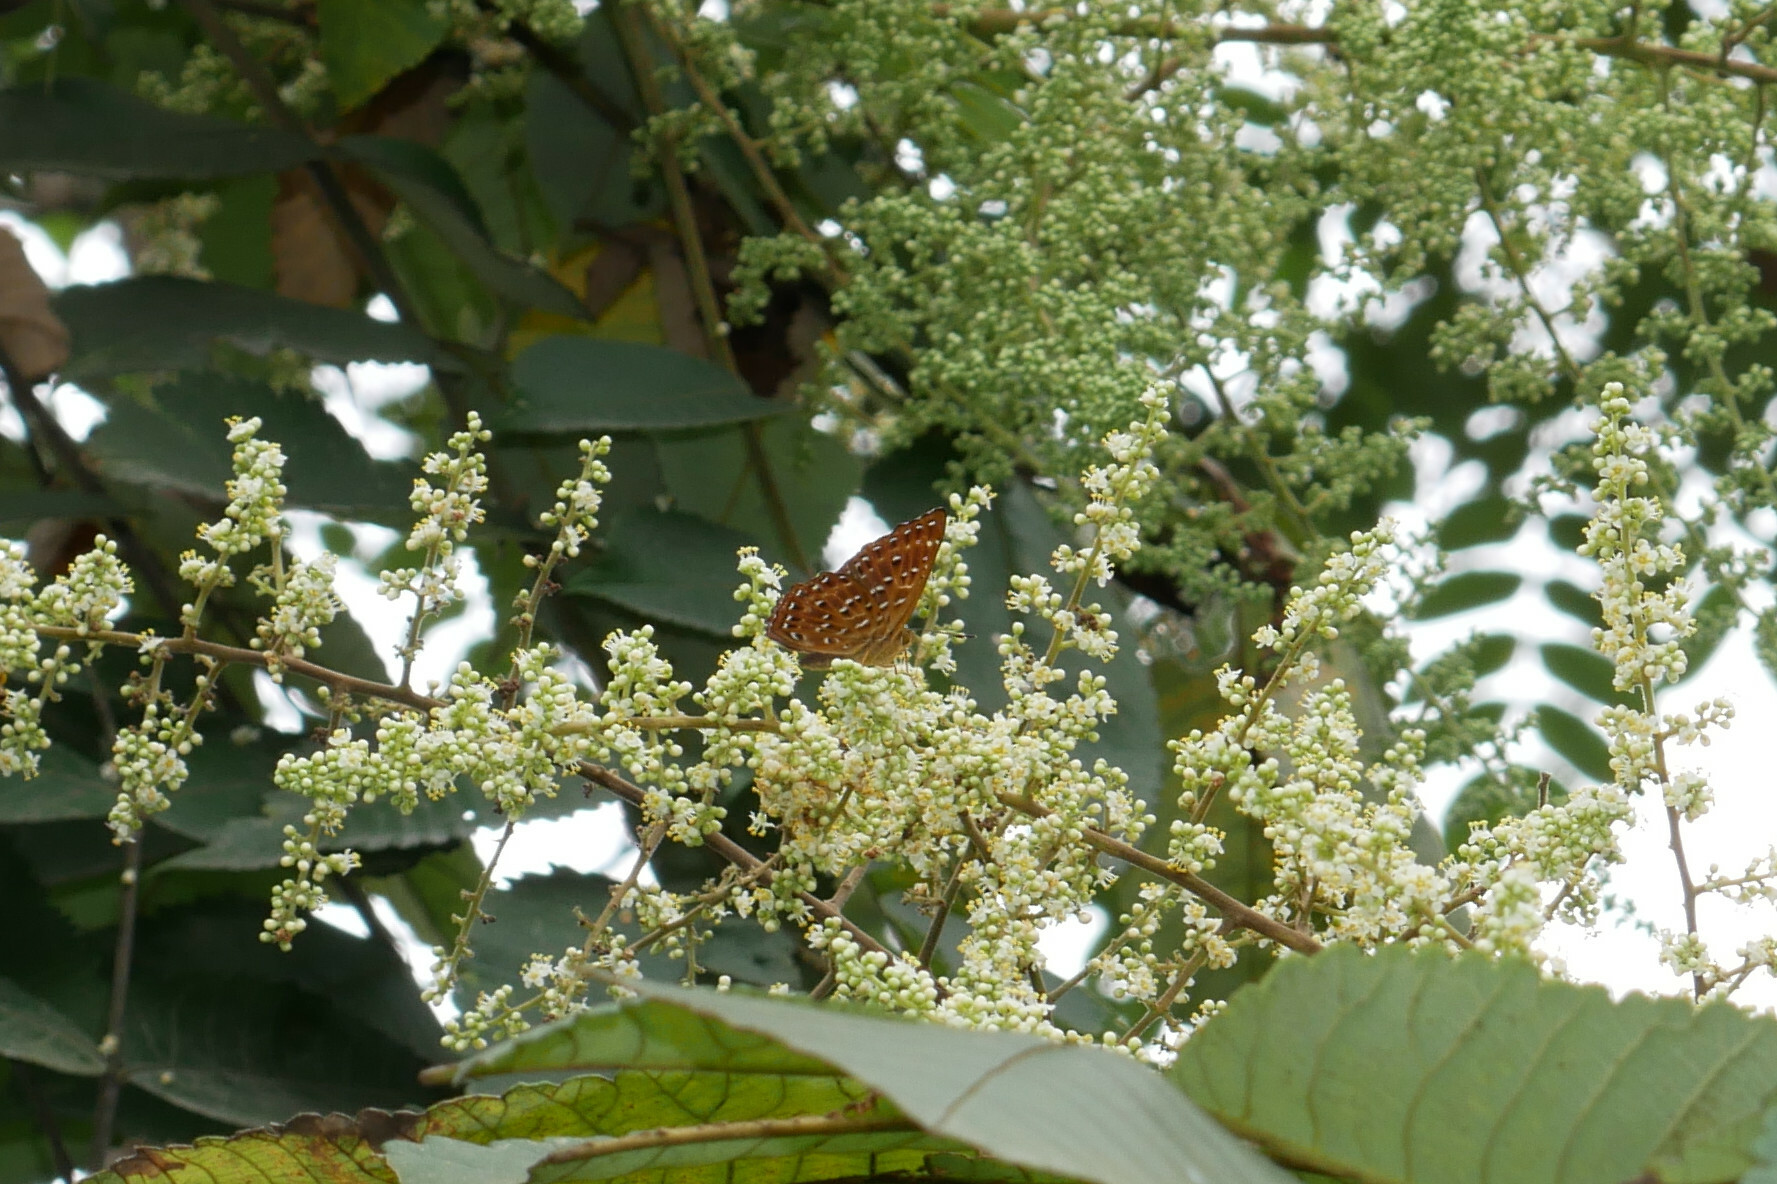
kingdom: Animalia
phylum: Arthropoda
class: Insecta
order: Lepidoptera
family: Riodinidae
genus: Zemeros
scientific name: Zemeros flegyas
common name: Punchinello
